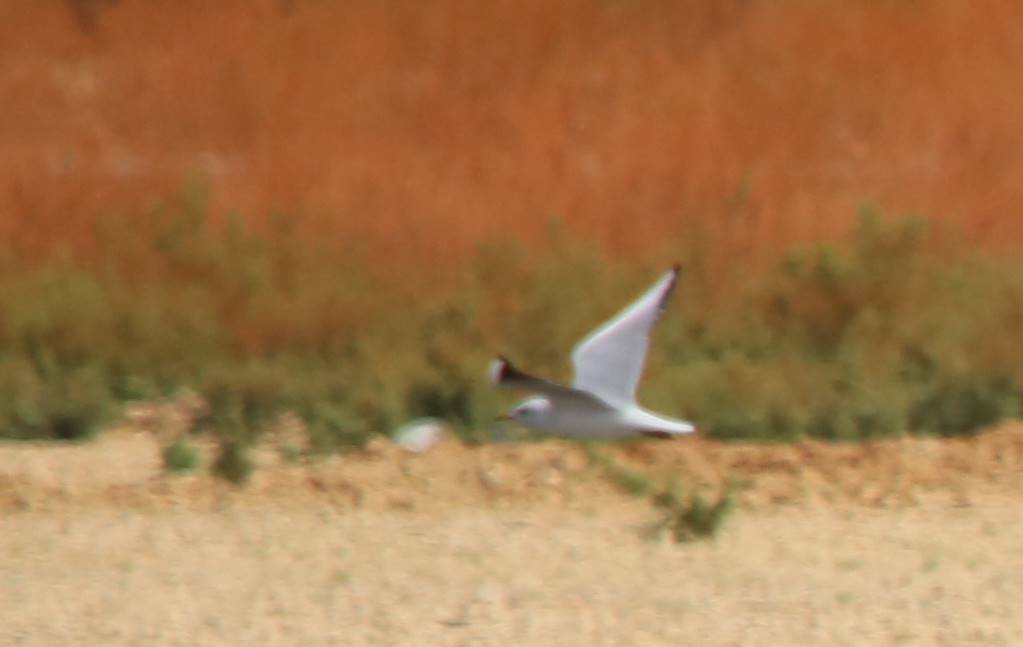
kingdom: Animalia
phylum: Chordata
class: Aves
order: Charadriiformes
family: Laridae
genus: Chroicocephalus
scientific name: Chroicocephalus ridibundus
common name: Black-headed gull
